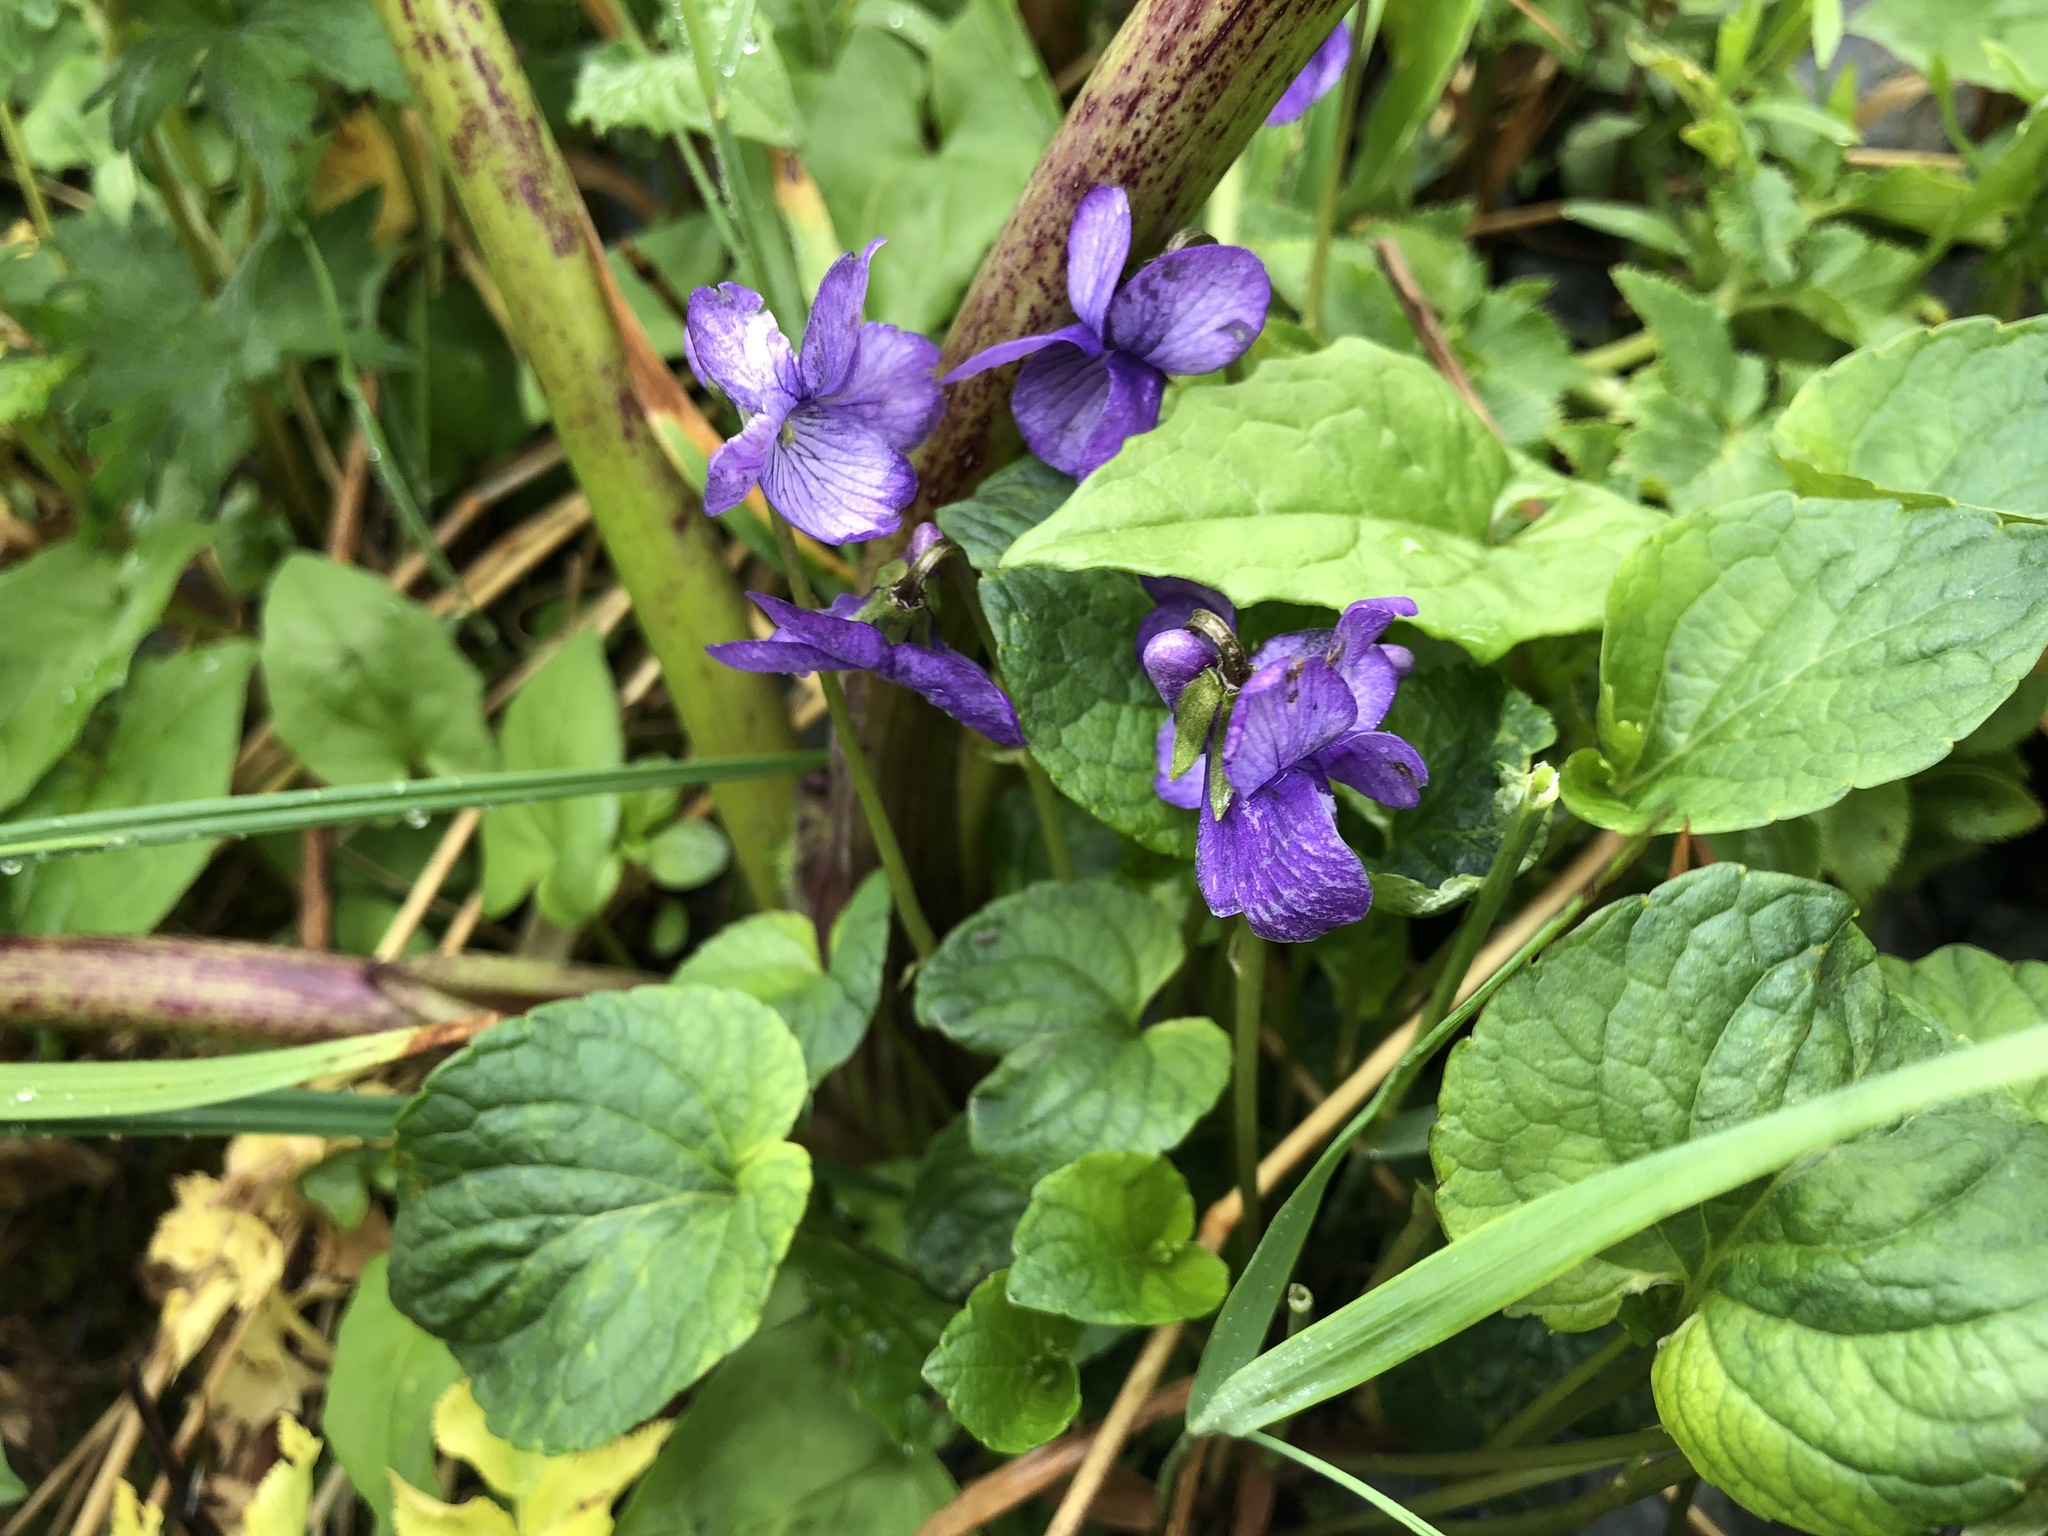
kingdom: Plantae
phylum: Tracheophyta
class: Magnoliopsida
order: Malpighiales
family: Violaceae
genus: Viola
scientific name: Viola langsdorffii
